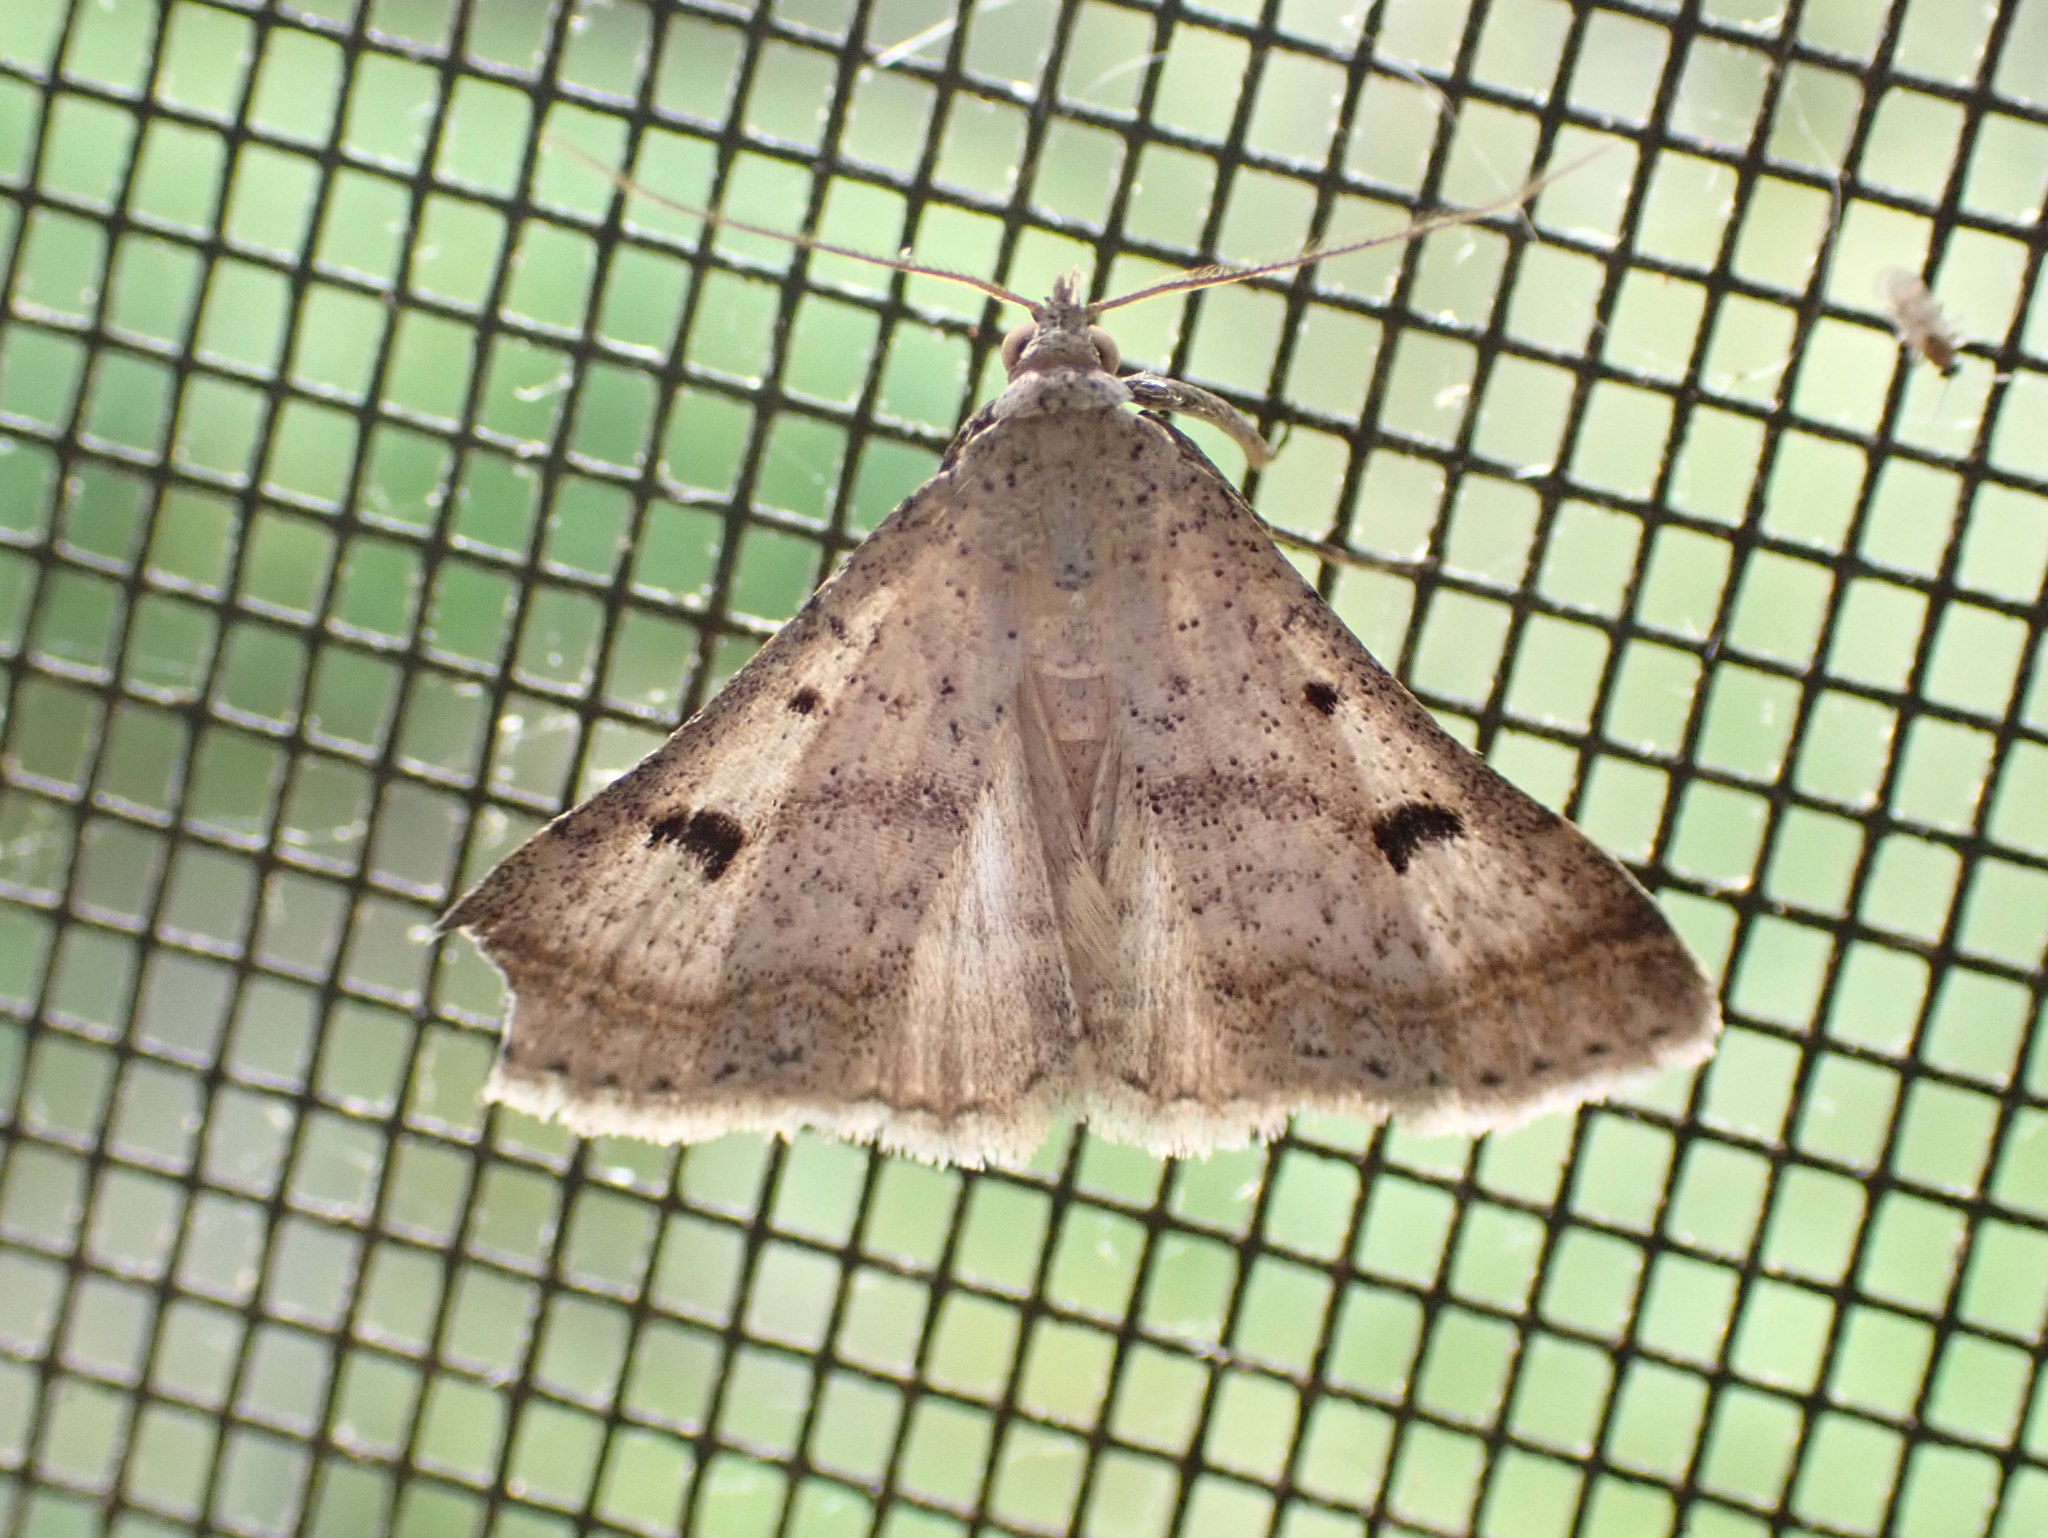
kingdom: Animalia
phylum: Arthropoda
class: Insecta
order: Lepidoptera
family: Erebidae
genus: Bleptina
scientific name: Bleptina caradrinalis
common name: Bent-winged owlet
